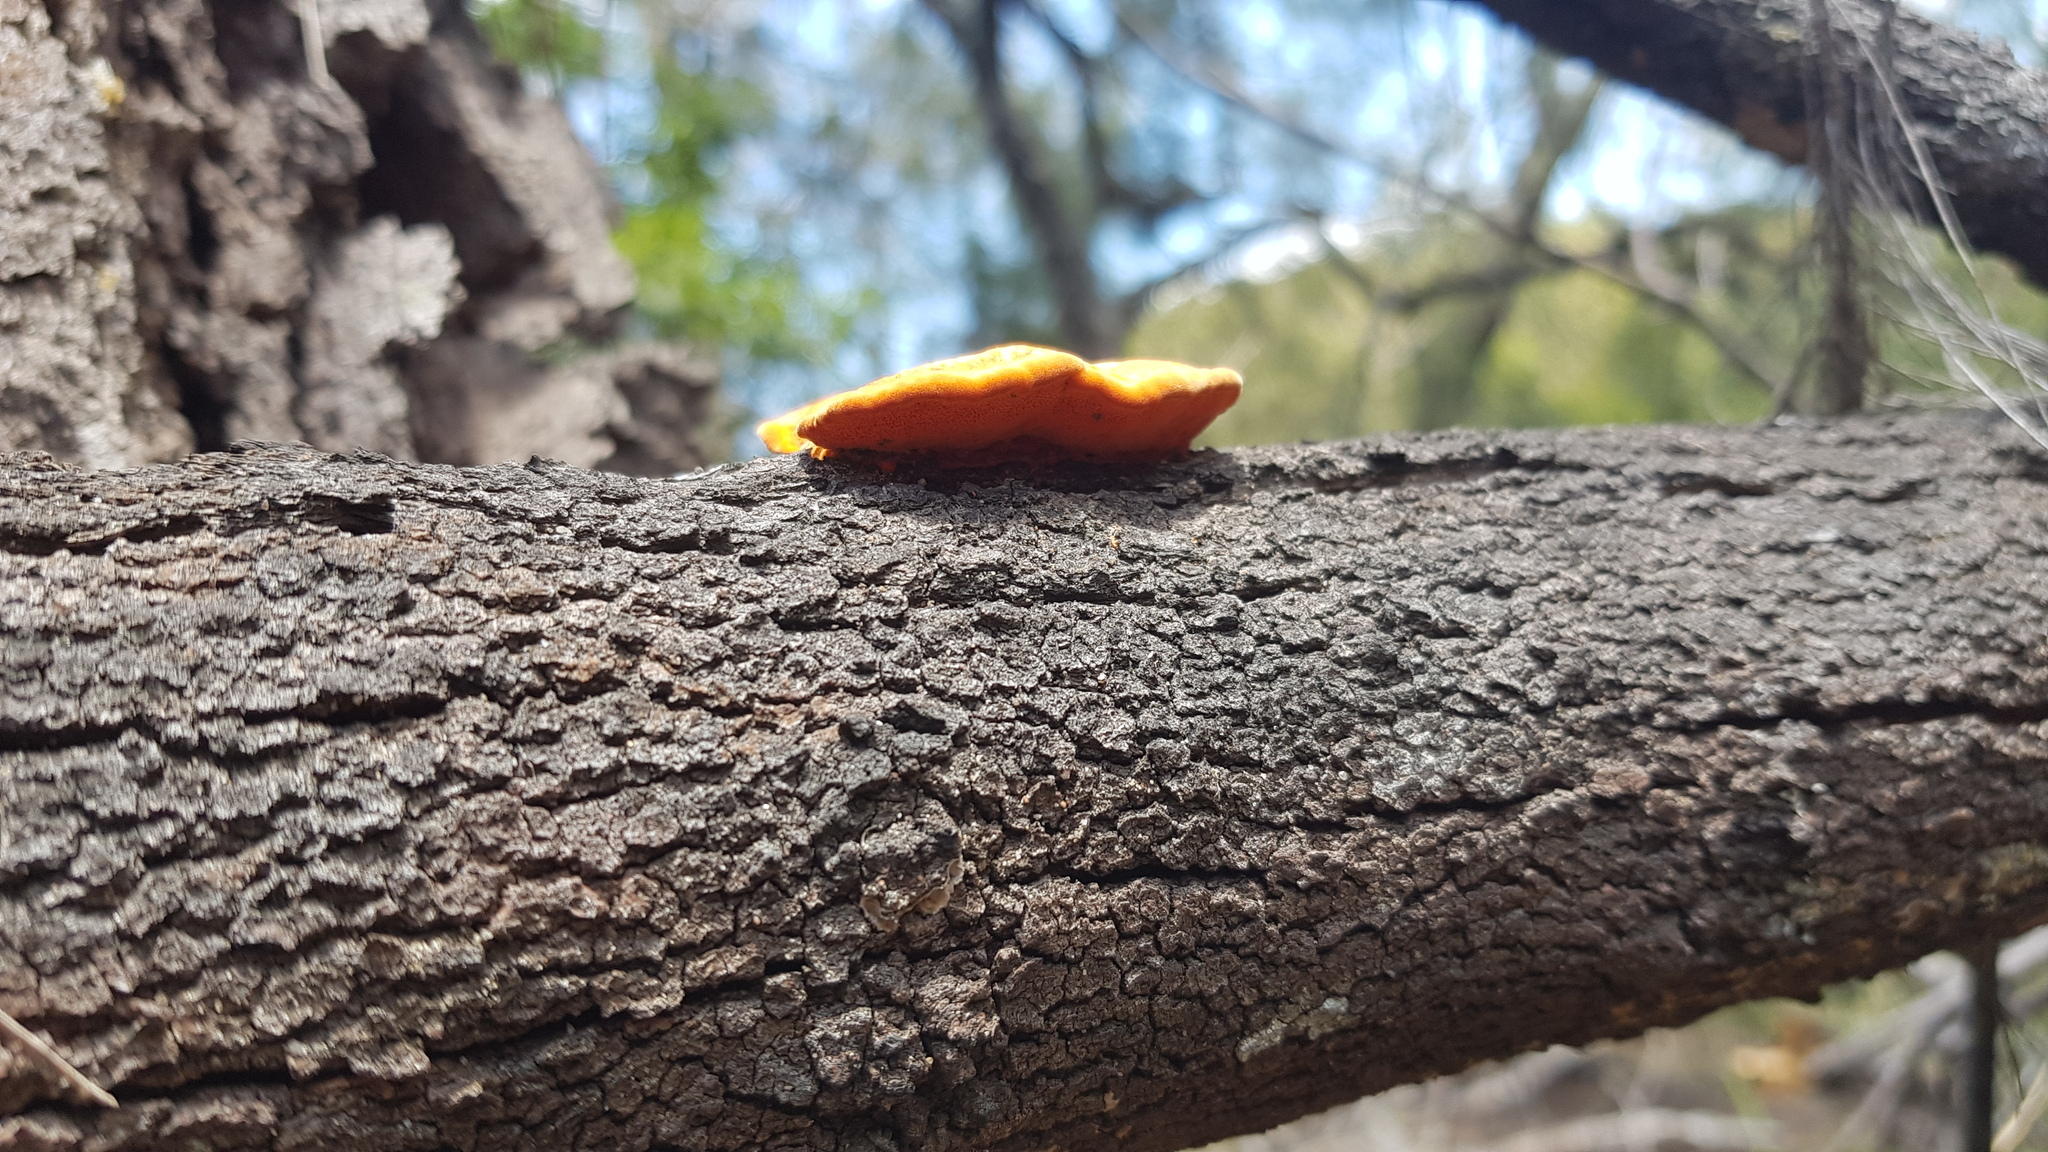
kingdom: Fungi
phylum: Basidiomycota
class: Agaricomycetes
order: Polyporales
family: Polyporaceae
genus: Trametes
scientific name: Trametes coccinea
